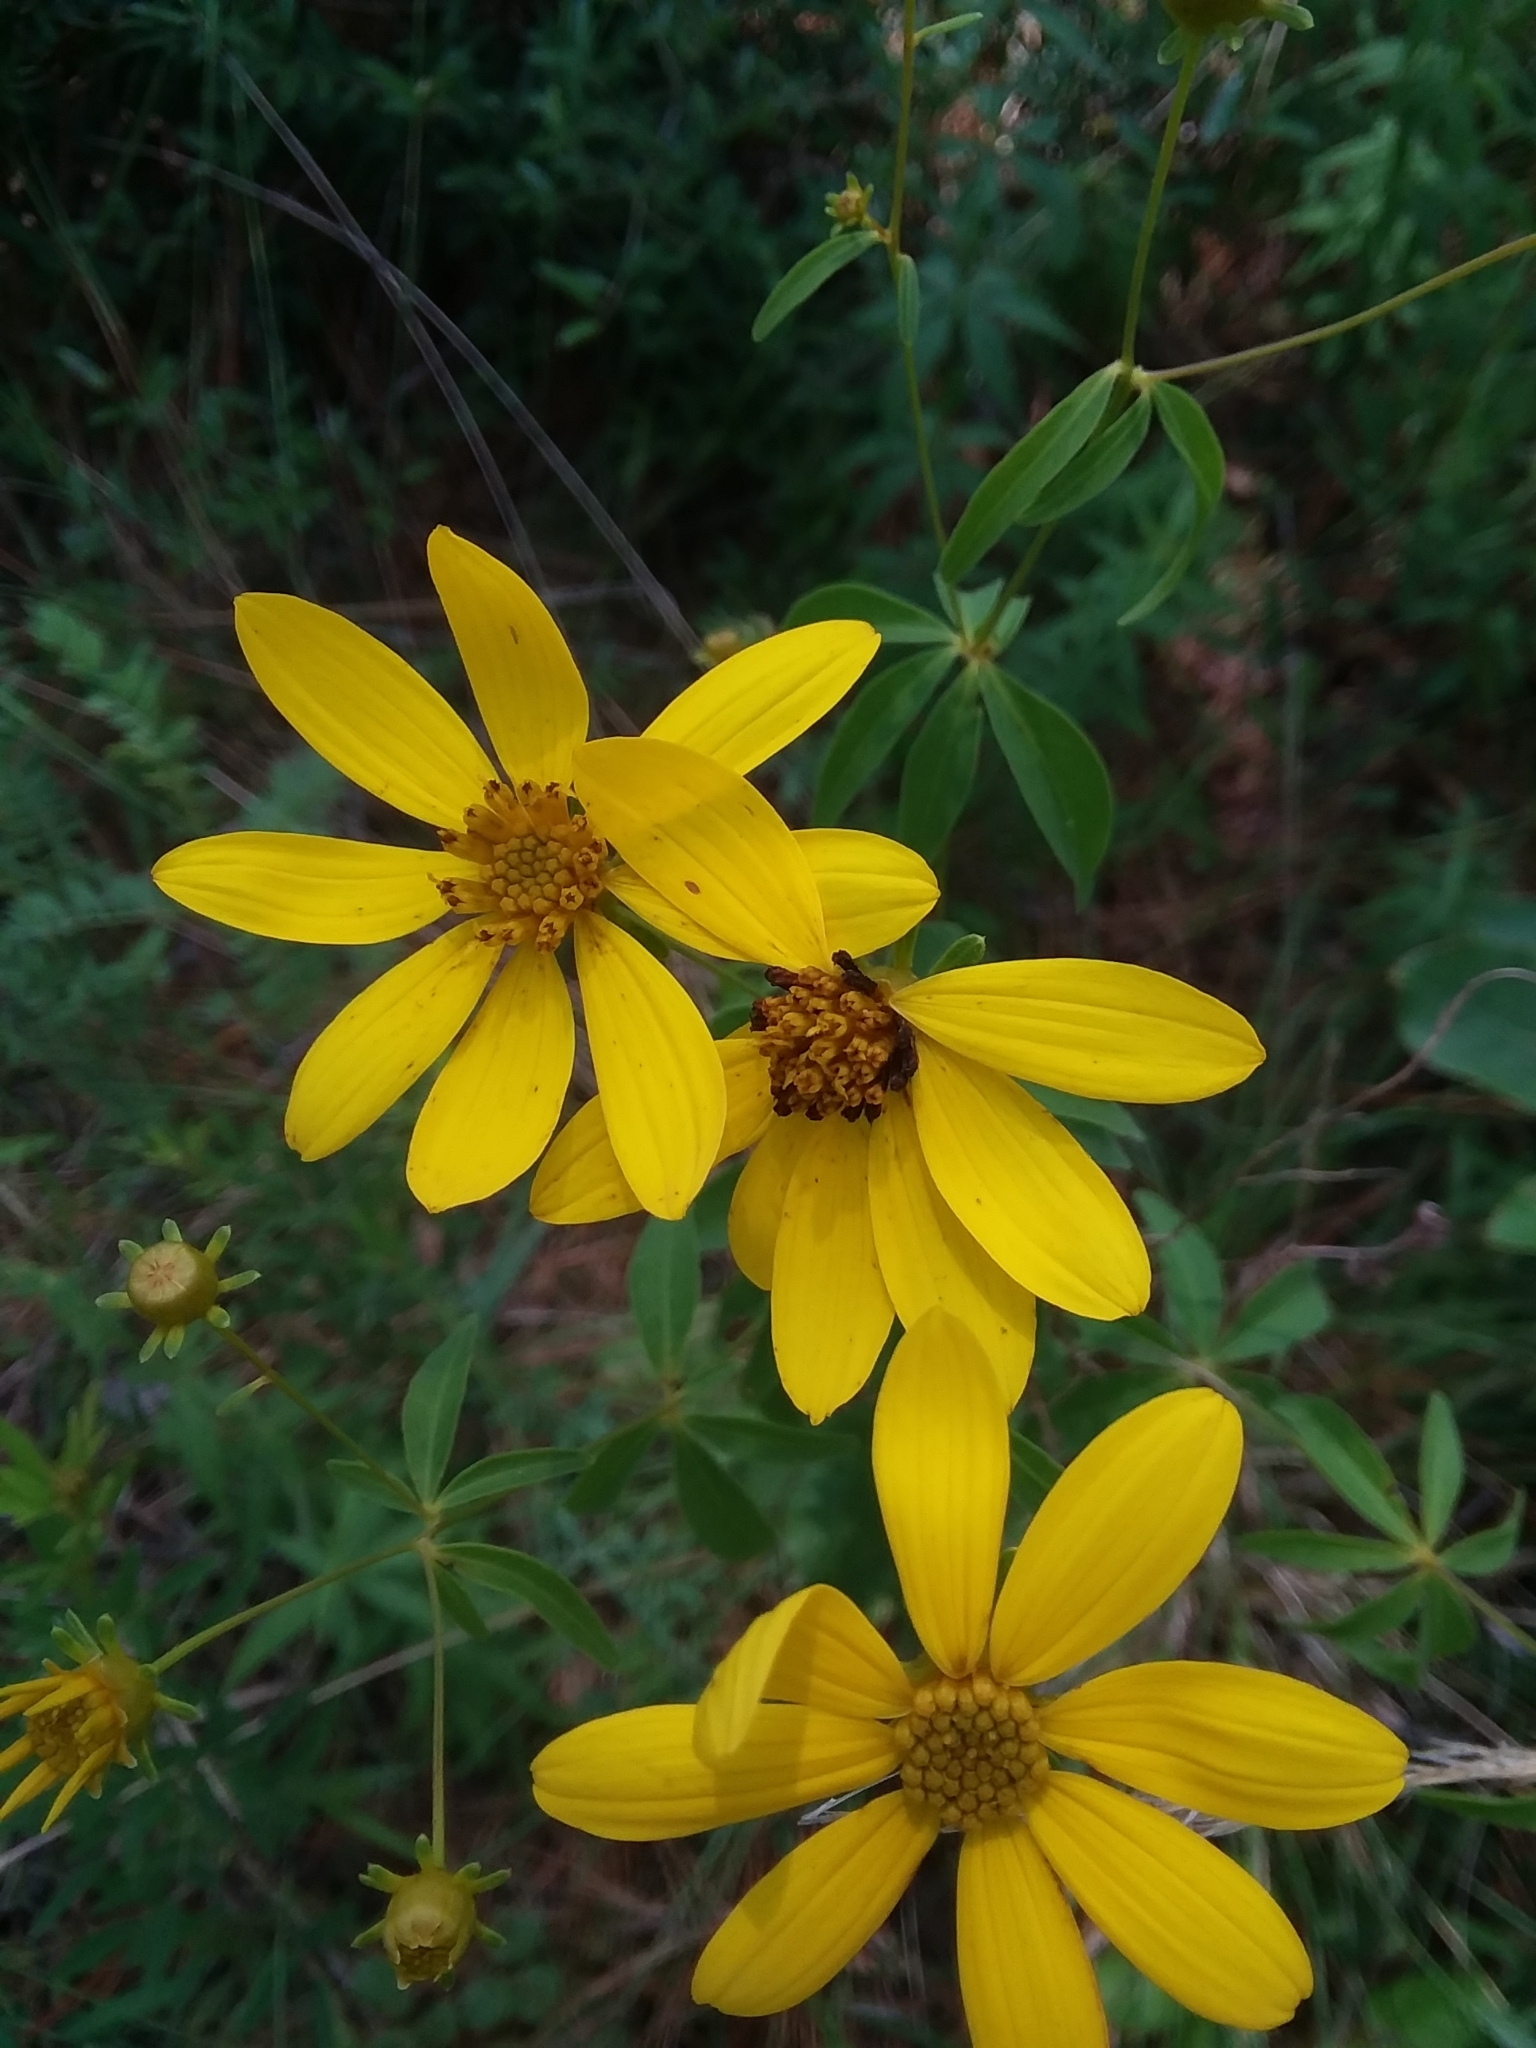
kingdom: Plantae
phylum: Tracheophyta
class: Magnoliopsida
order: Asterales
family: Asteraceae
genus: Coreopsis
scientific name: Coreopsis major
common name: Forest tickseed
